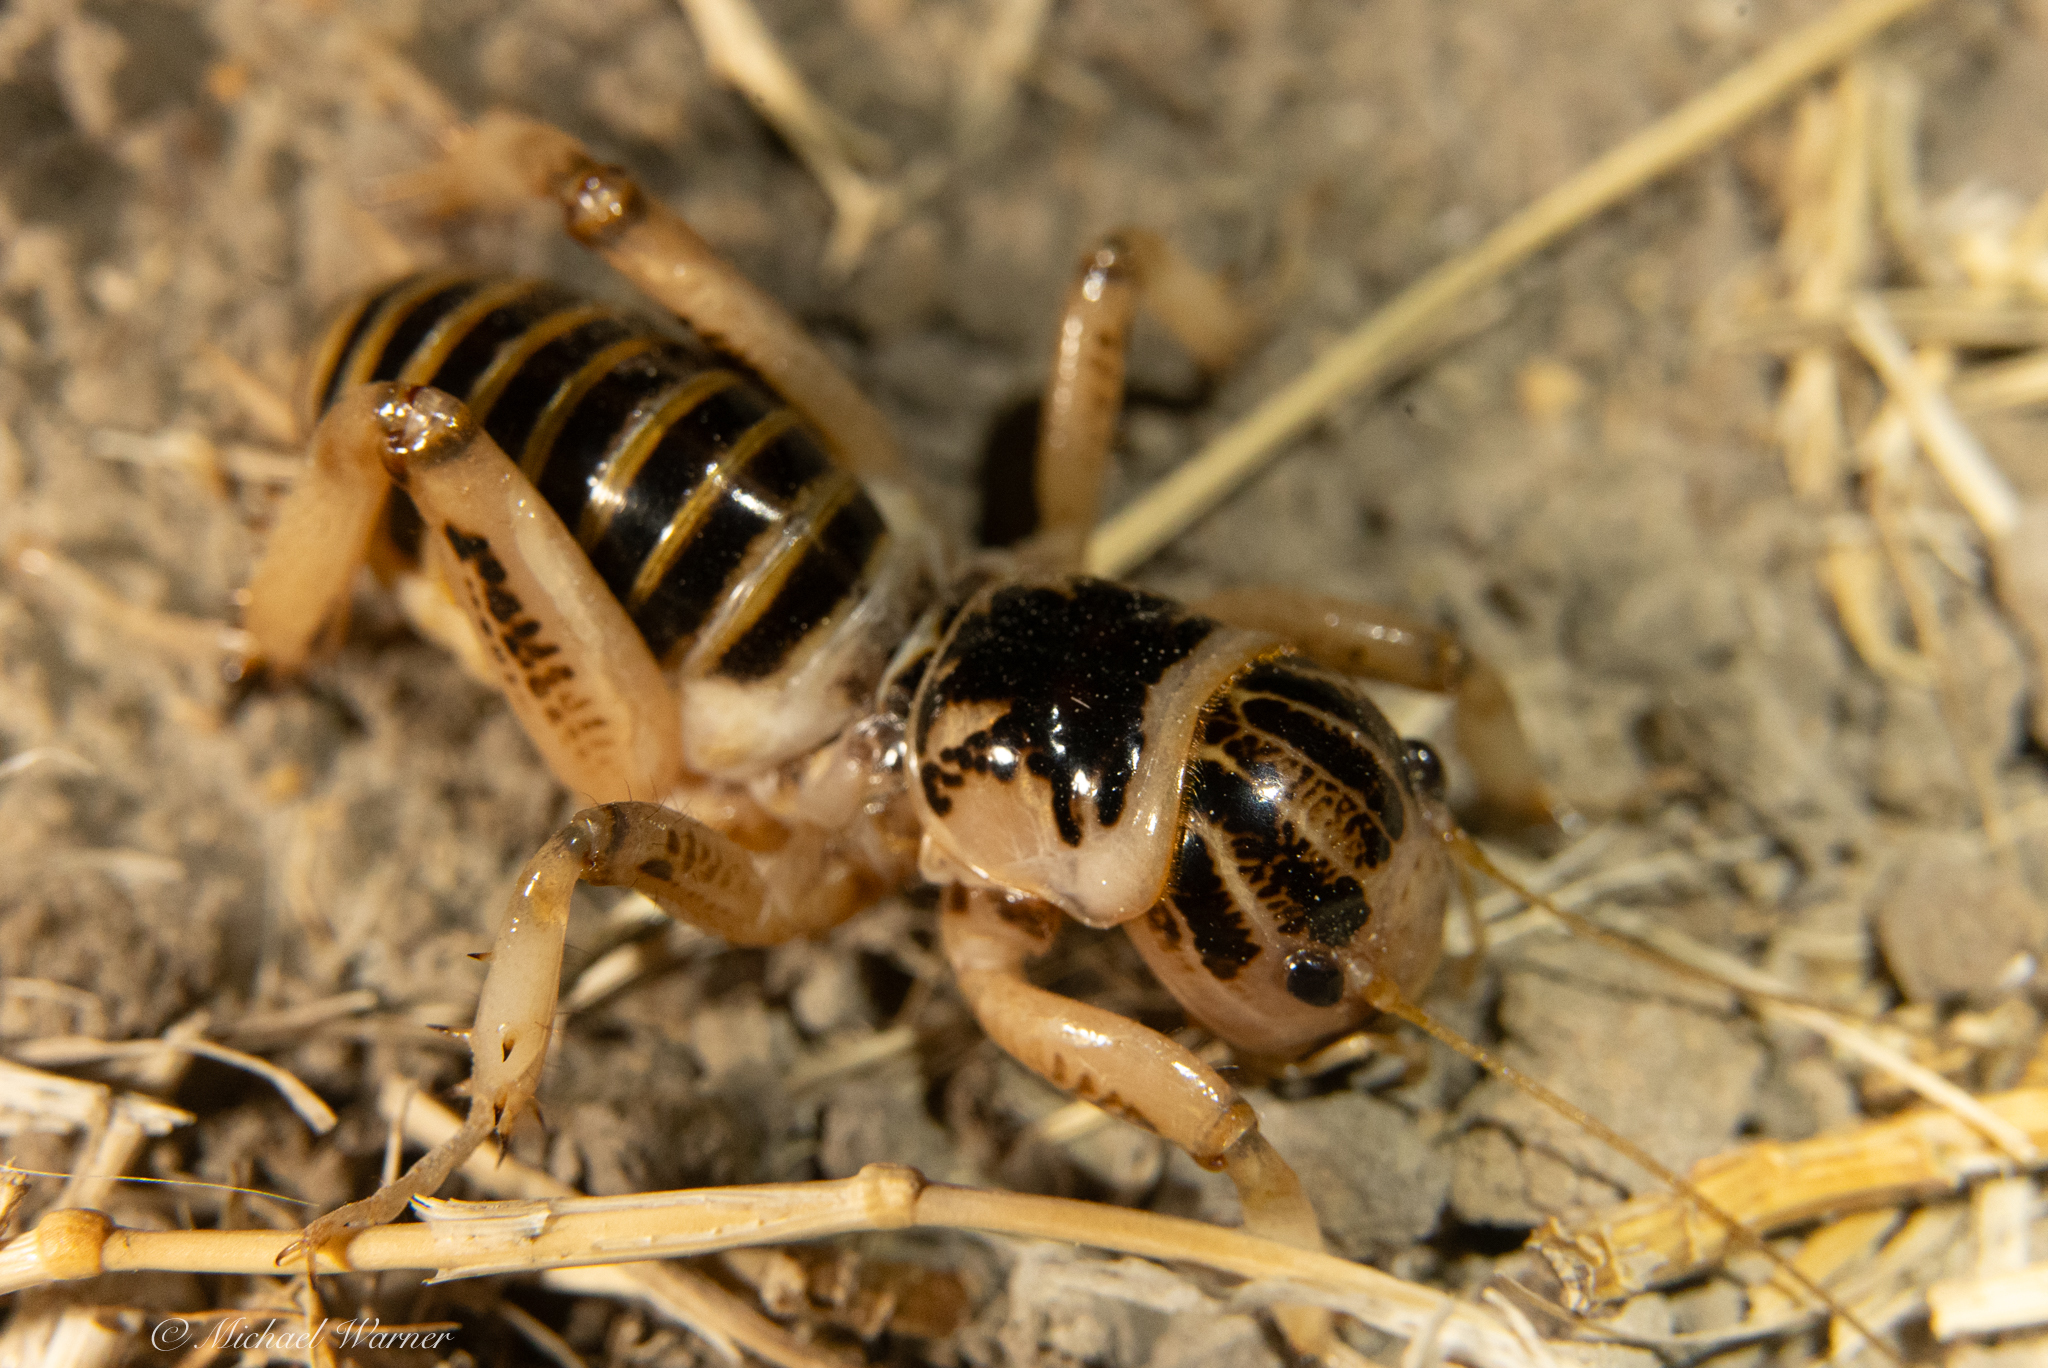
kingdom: Animalia
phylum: Arthropoda
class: Insecta
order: Orthoptera
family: Stenopelmatidae
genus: Ammopelmatus
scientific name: Ammopelmatus pictus
